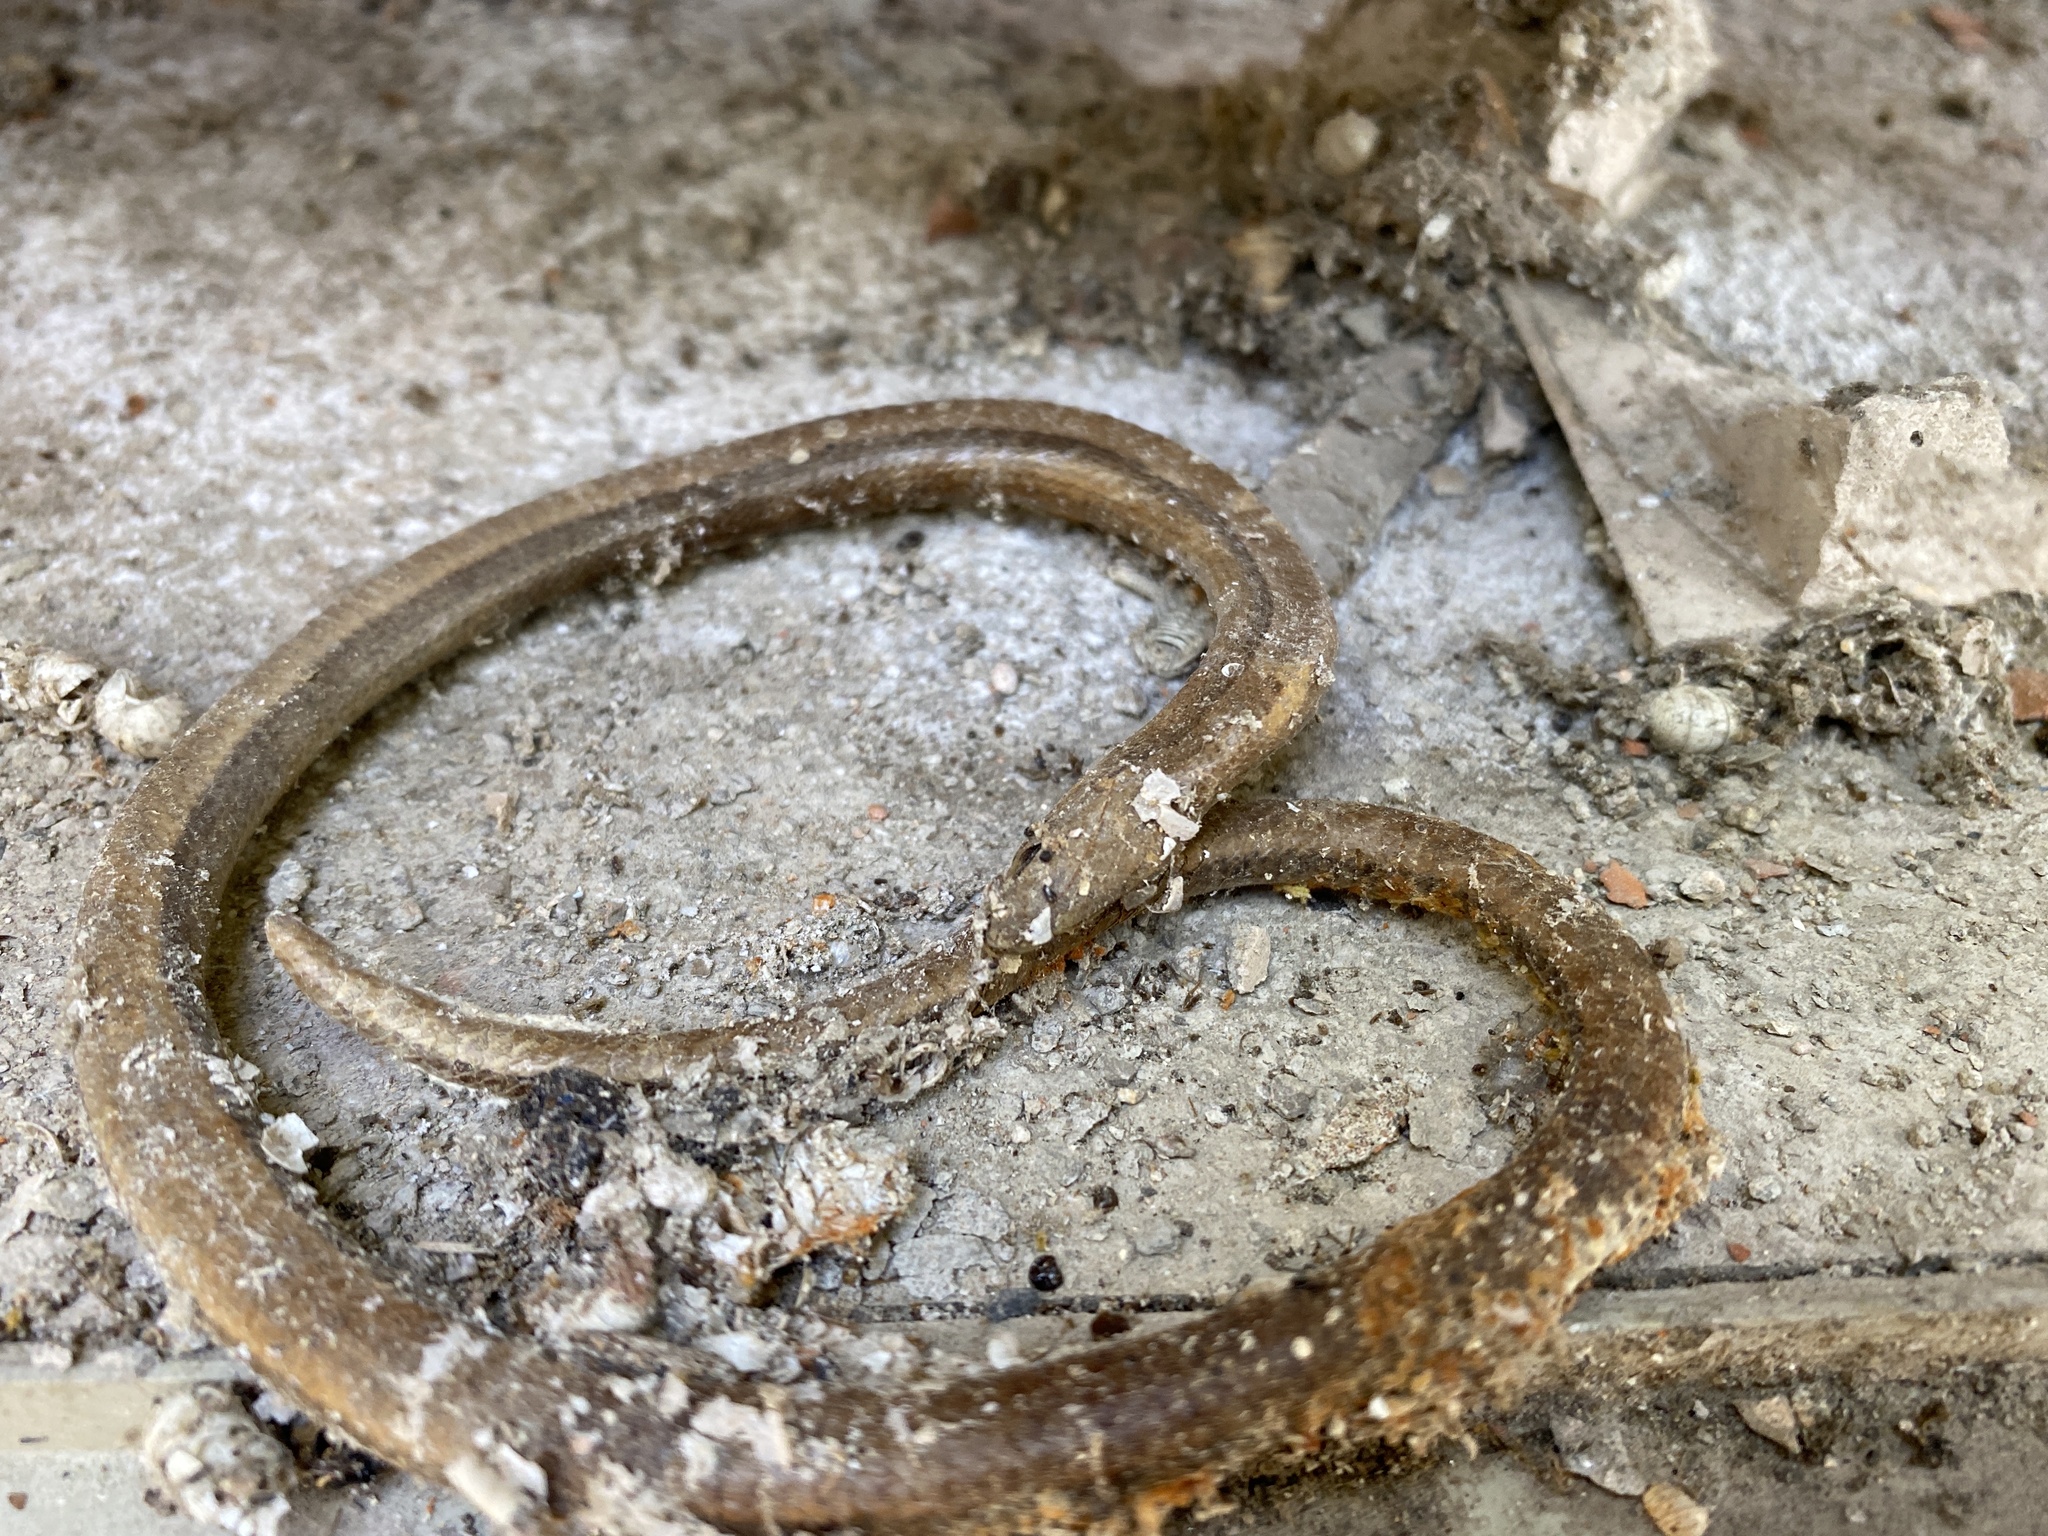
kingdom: Animalia
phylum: Chordata
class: Squamata
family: Anguidae
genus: Anguis
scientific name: Anguis fragilis
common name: Slow worm
